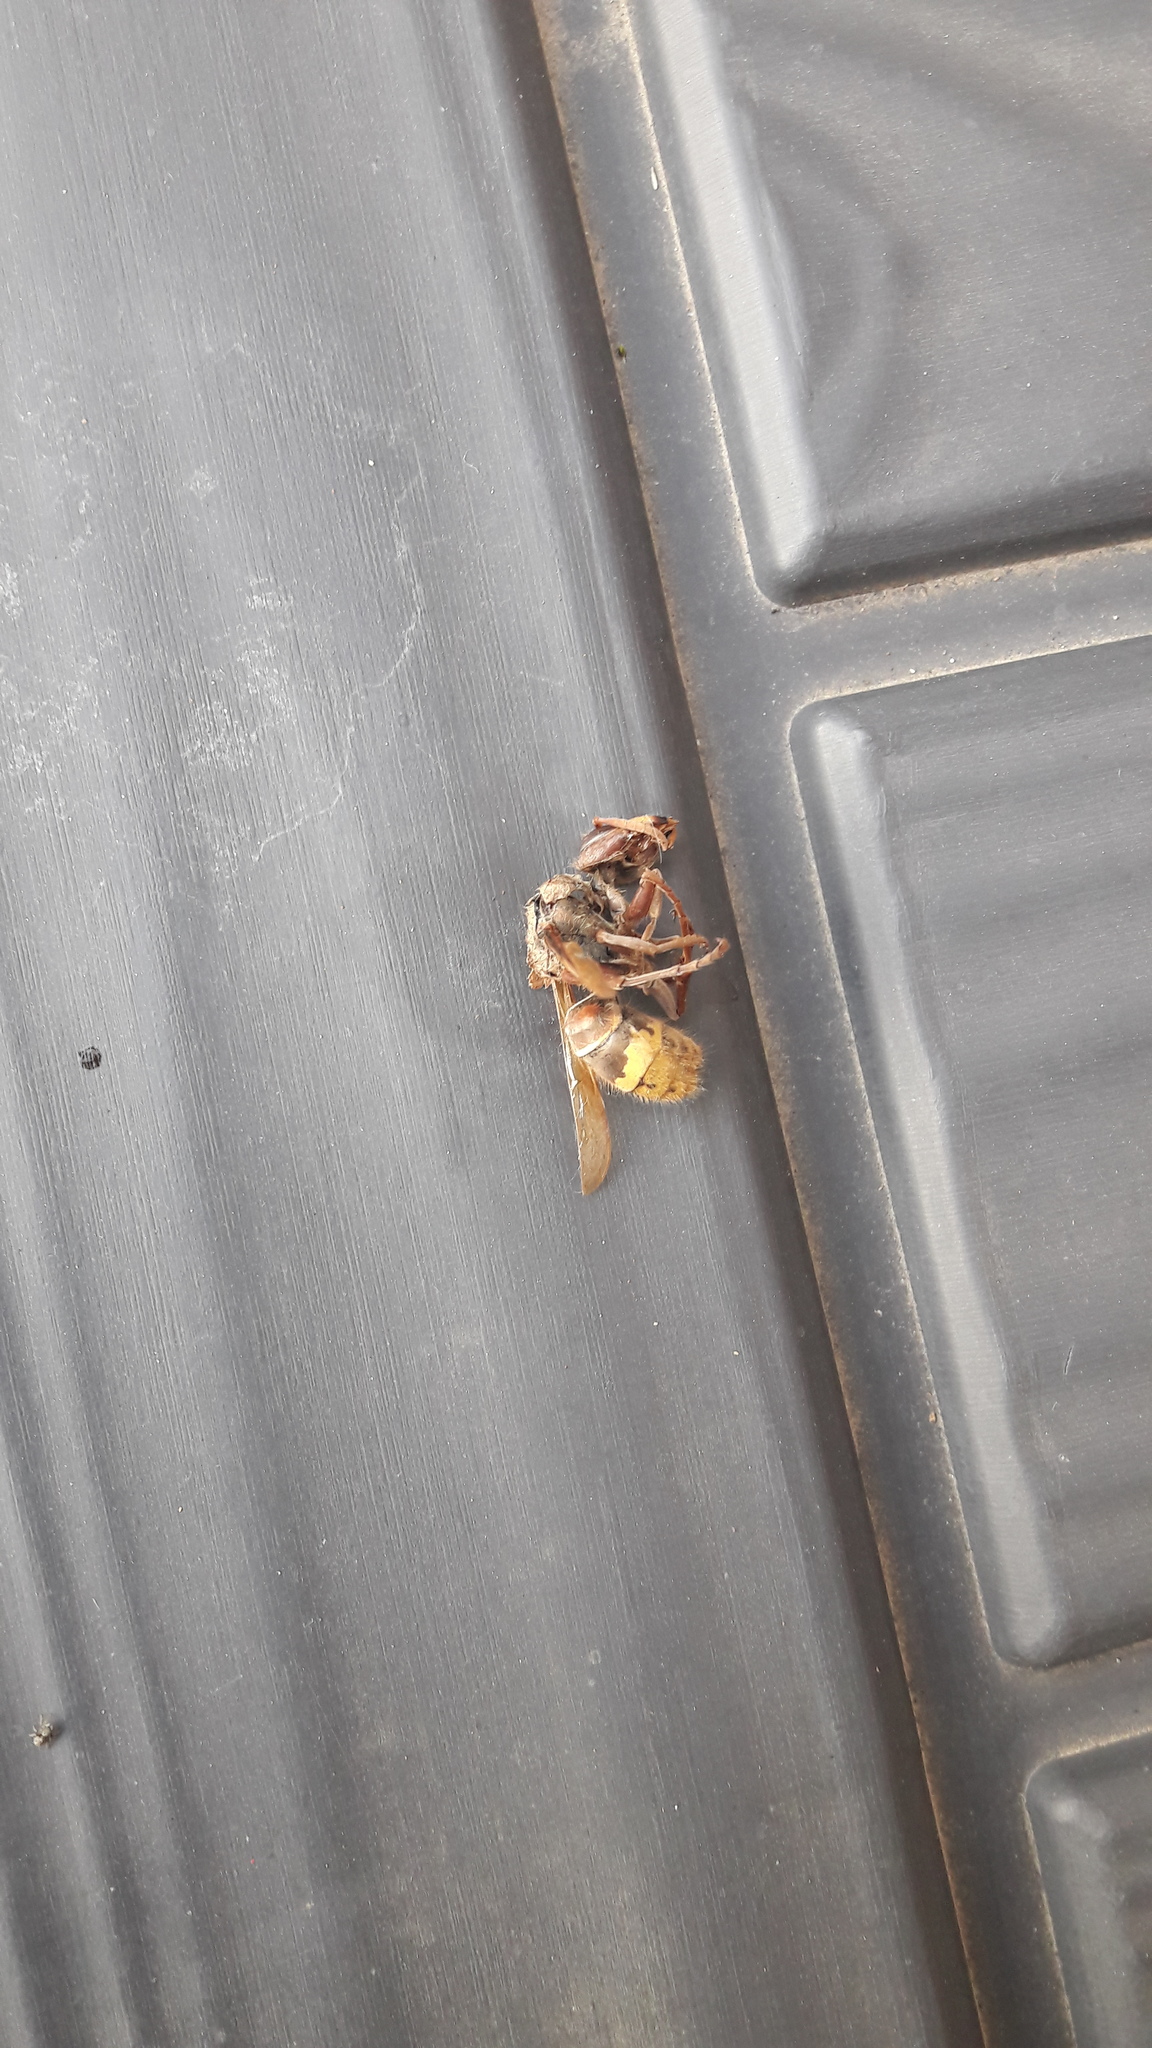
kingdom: Animalia
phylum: Arthropoda
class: Insecta
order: Hymenoptera
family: Vespidae
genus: Vespa
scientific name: Vespa crabro
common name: Hornet
